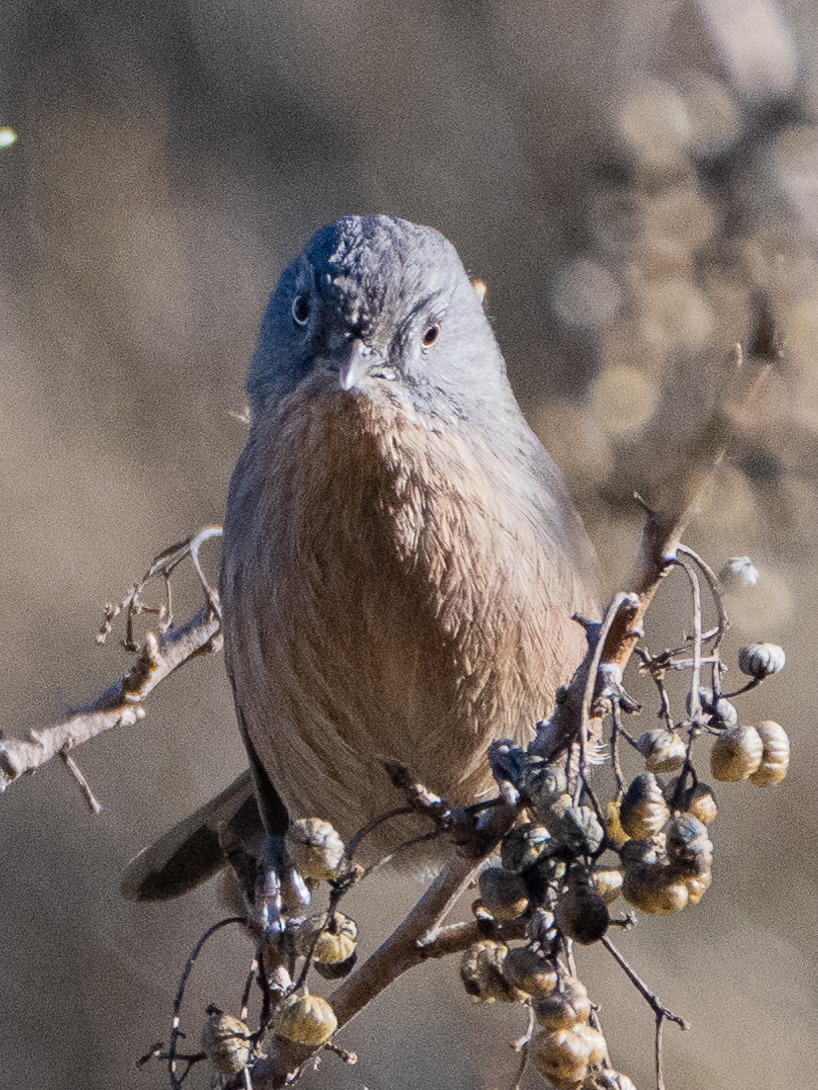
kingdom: Animalia
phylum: Chordata
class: Aves
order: Passeriformes
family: Sylviidae
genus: Chamaea
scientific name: Chamaea fasciata
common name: Wrentit
